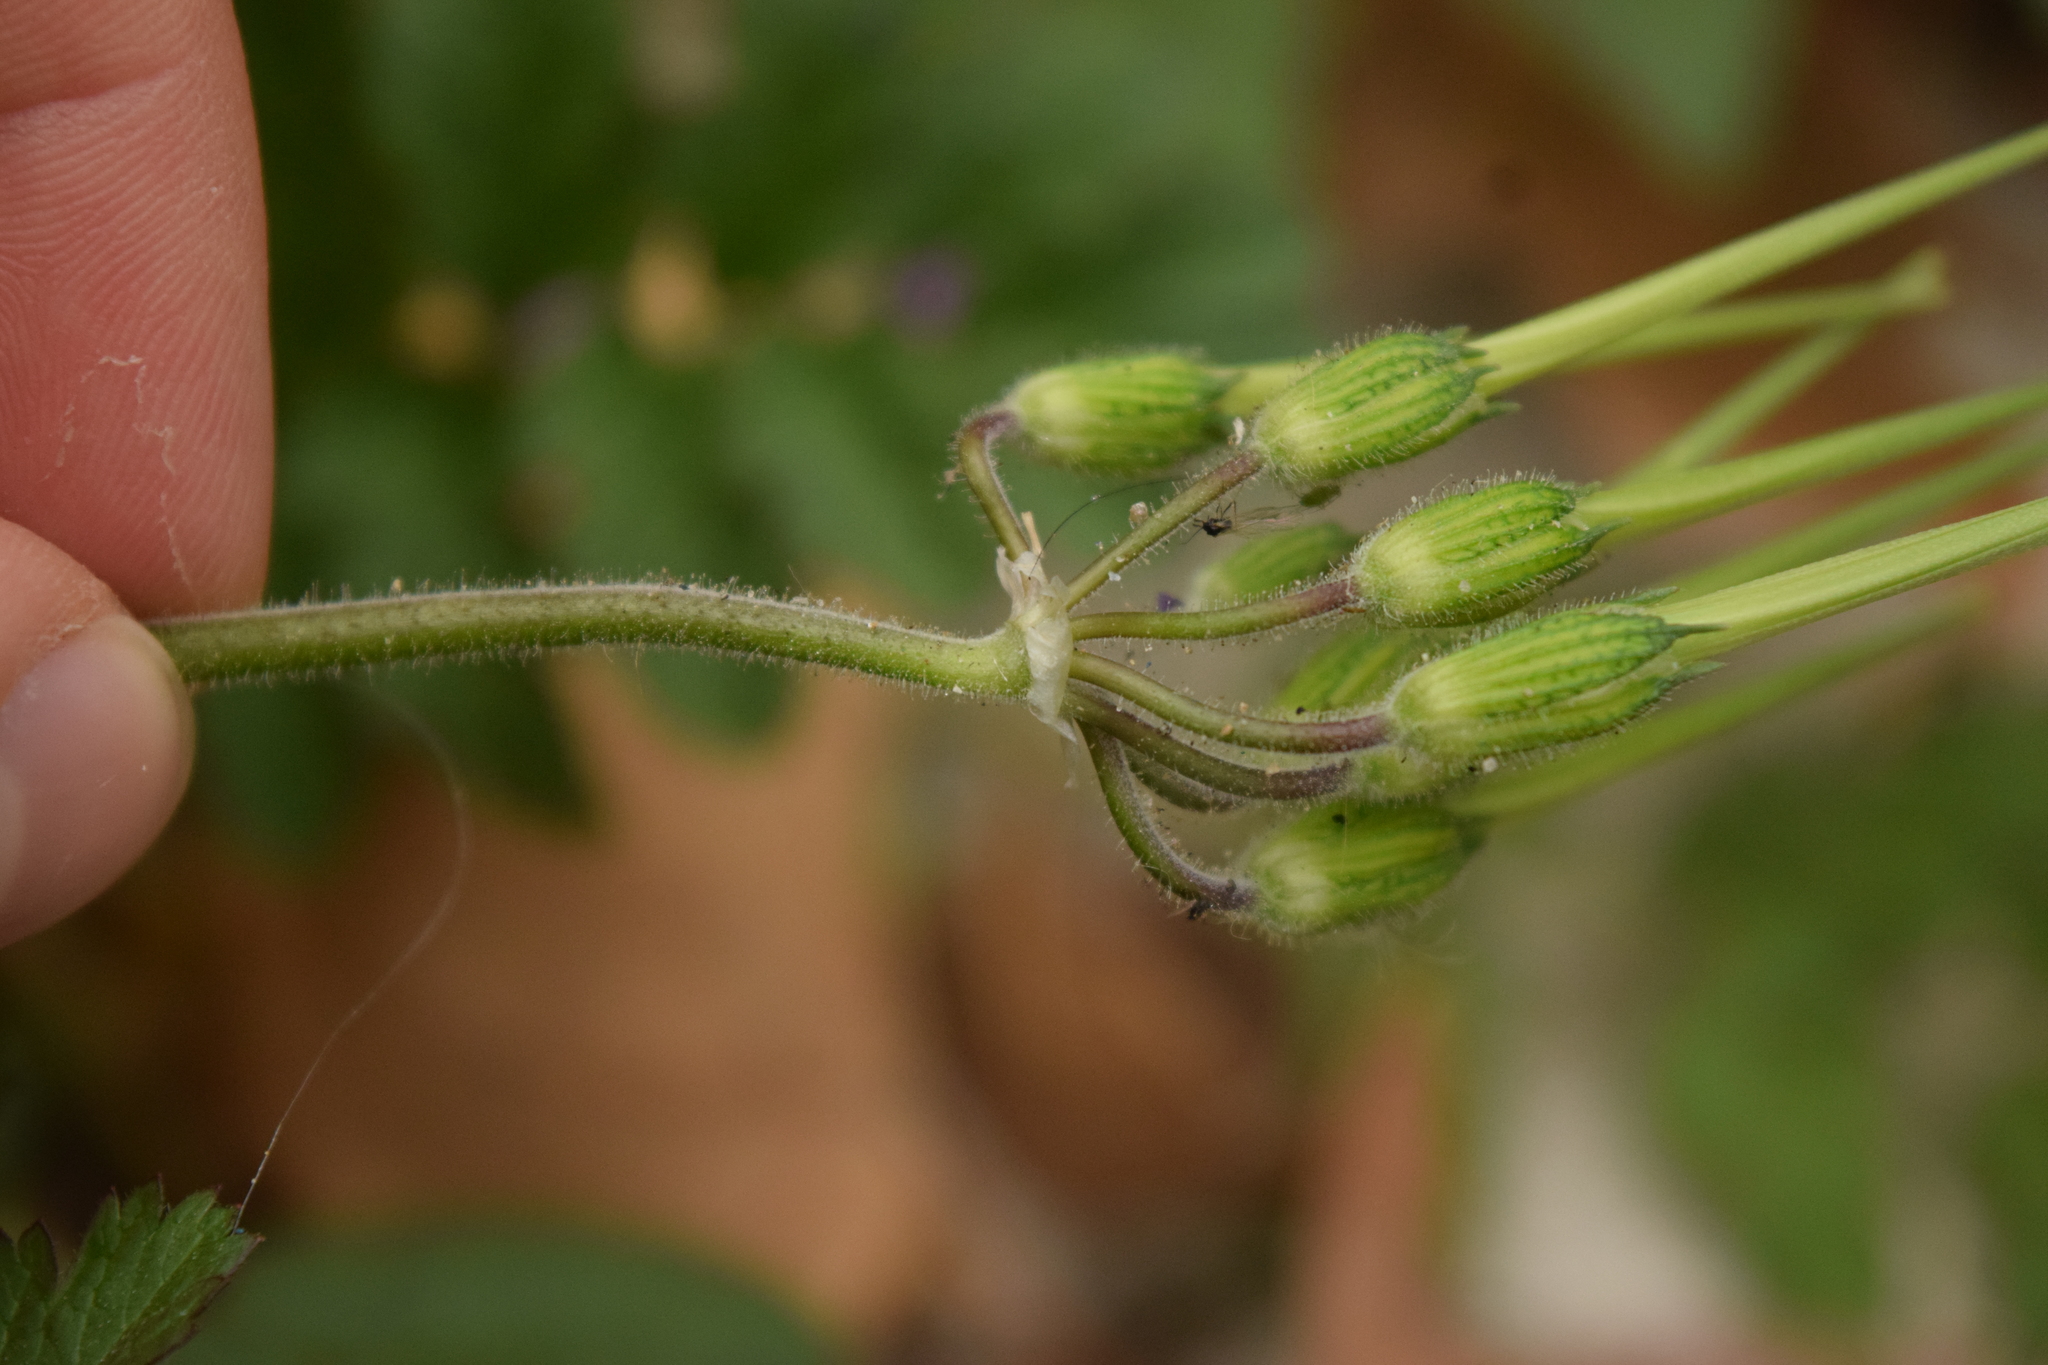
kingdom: Plantae
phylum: Tracheophyta
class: Magnoliopsida
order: Geraniales
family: Geraniaceae
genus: Erodium
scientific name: Erodium moschatum
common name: Musk stork's-bill
